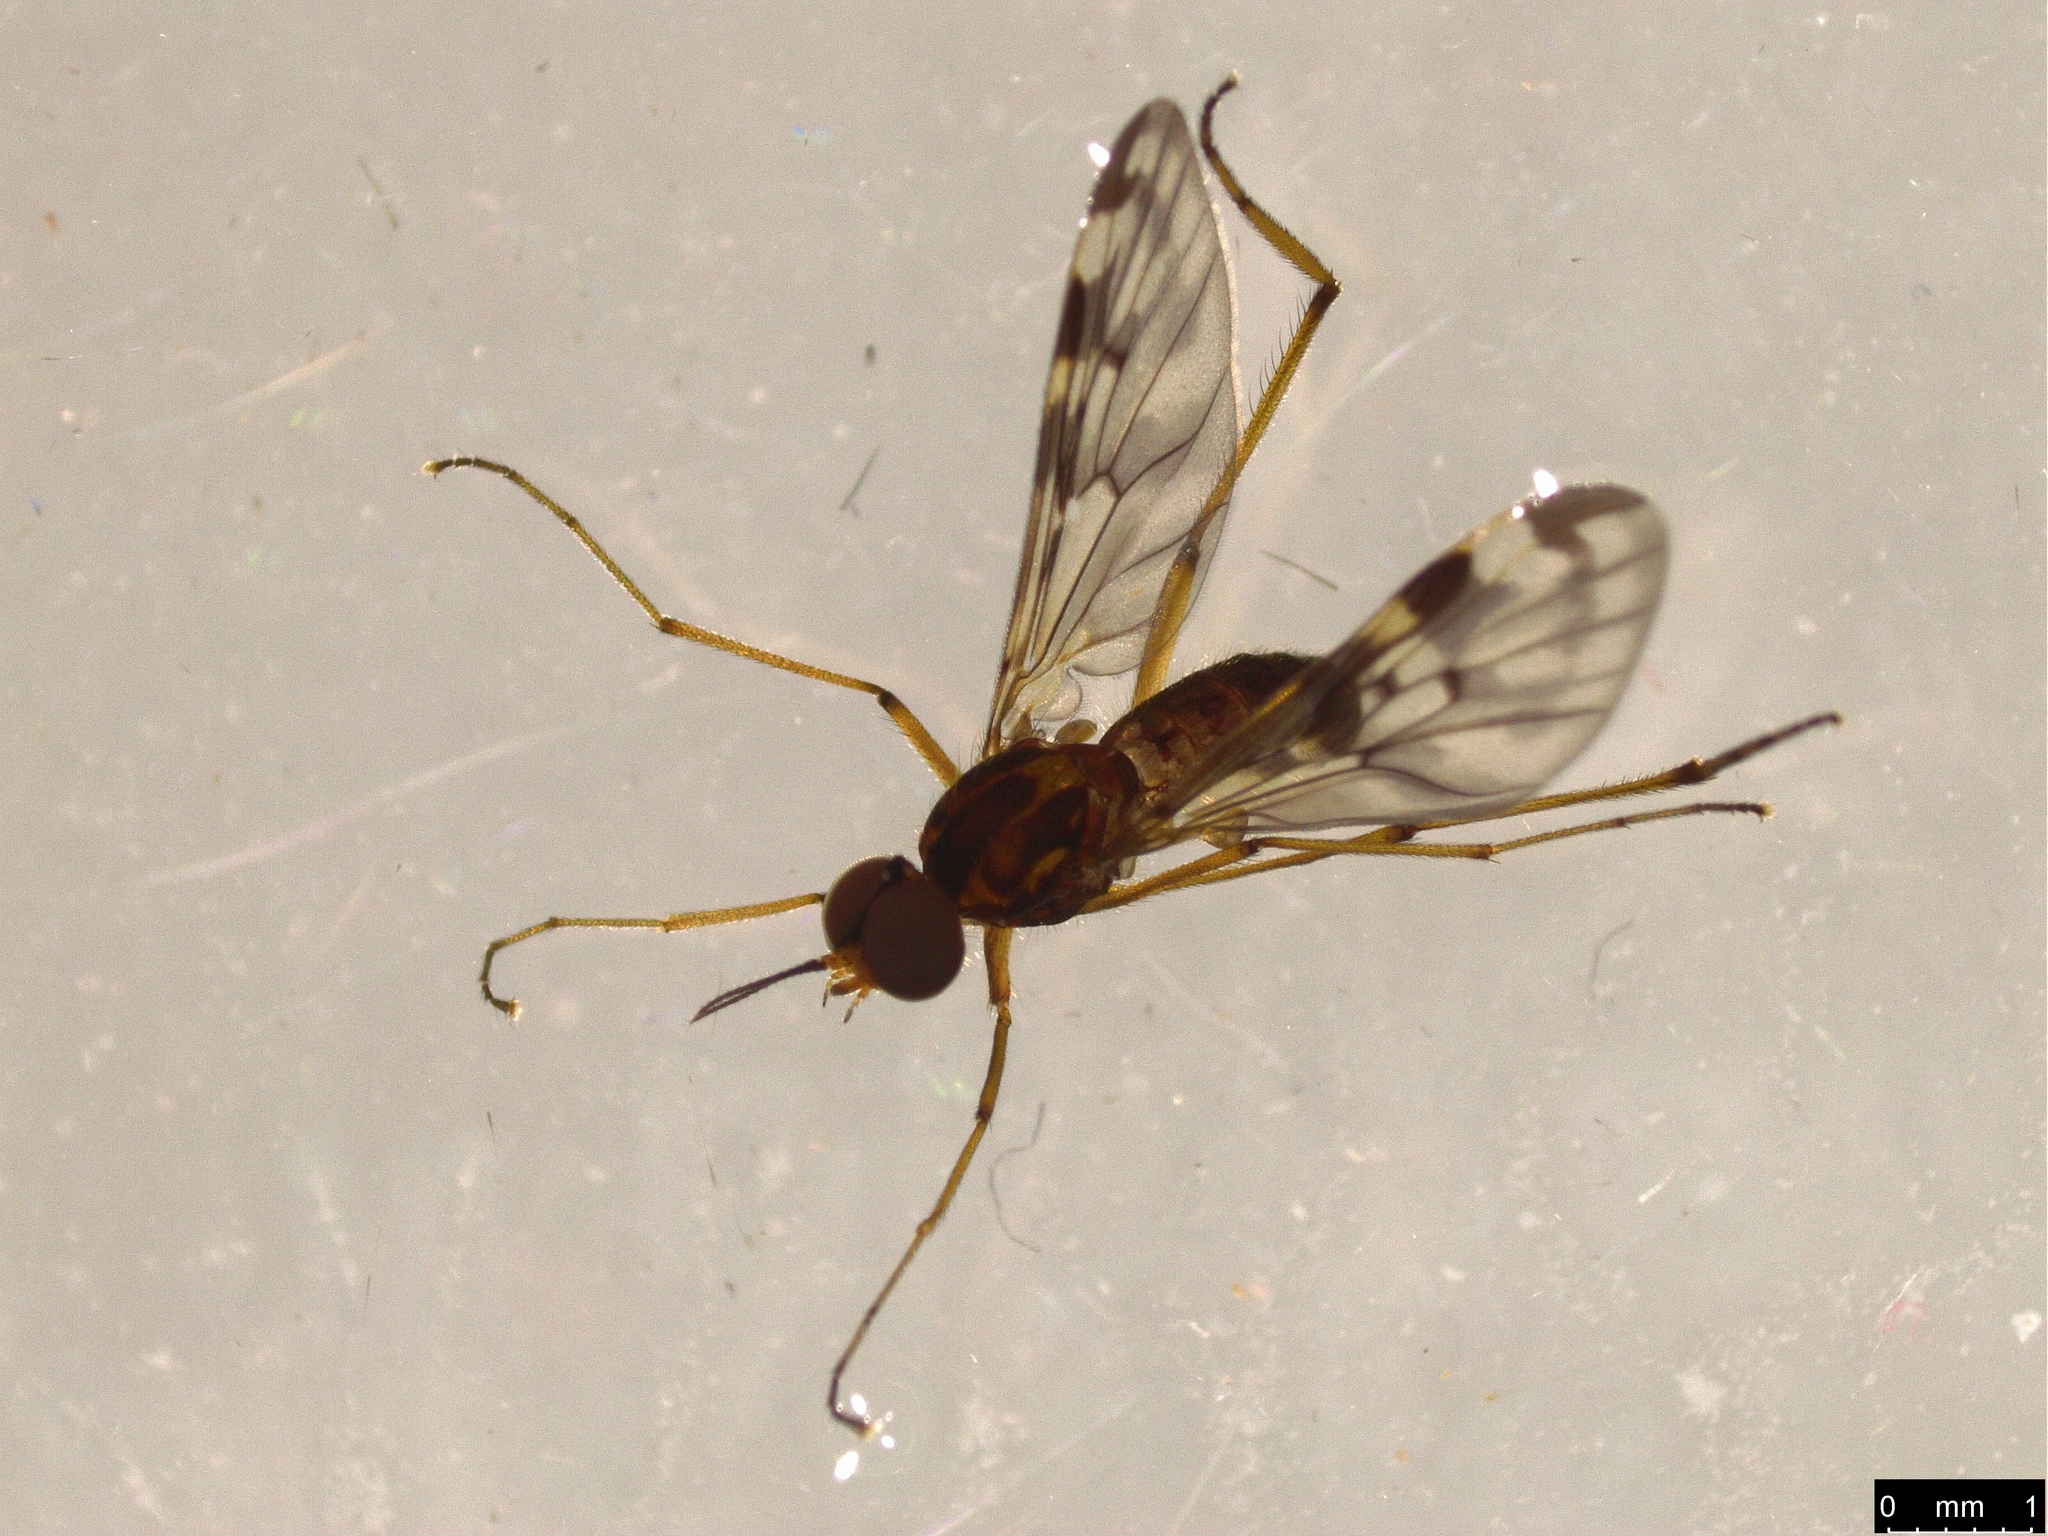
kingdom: Animalia
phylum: Arthropoda
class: Insecta
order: Diptera
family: Anisopodidae
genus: Sylvicola
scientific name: Sylvicola dubius
